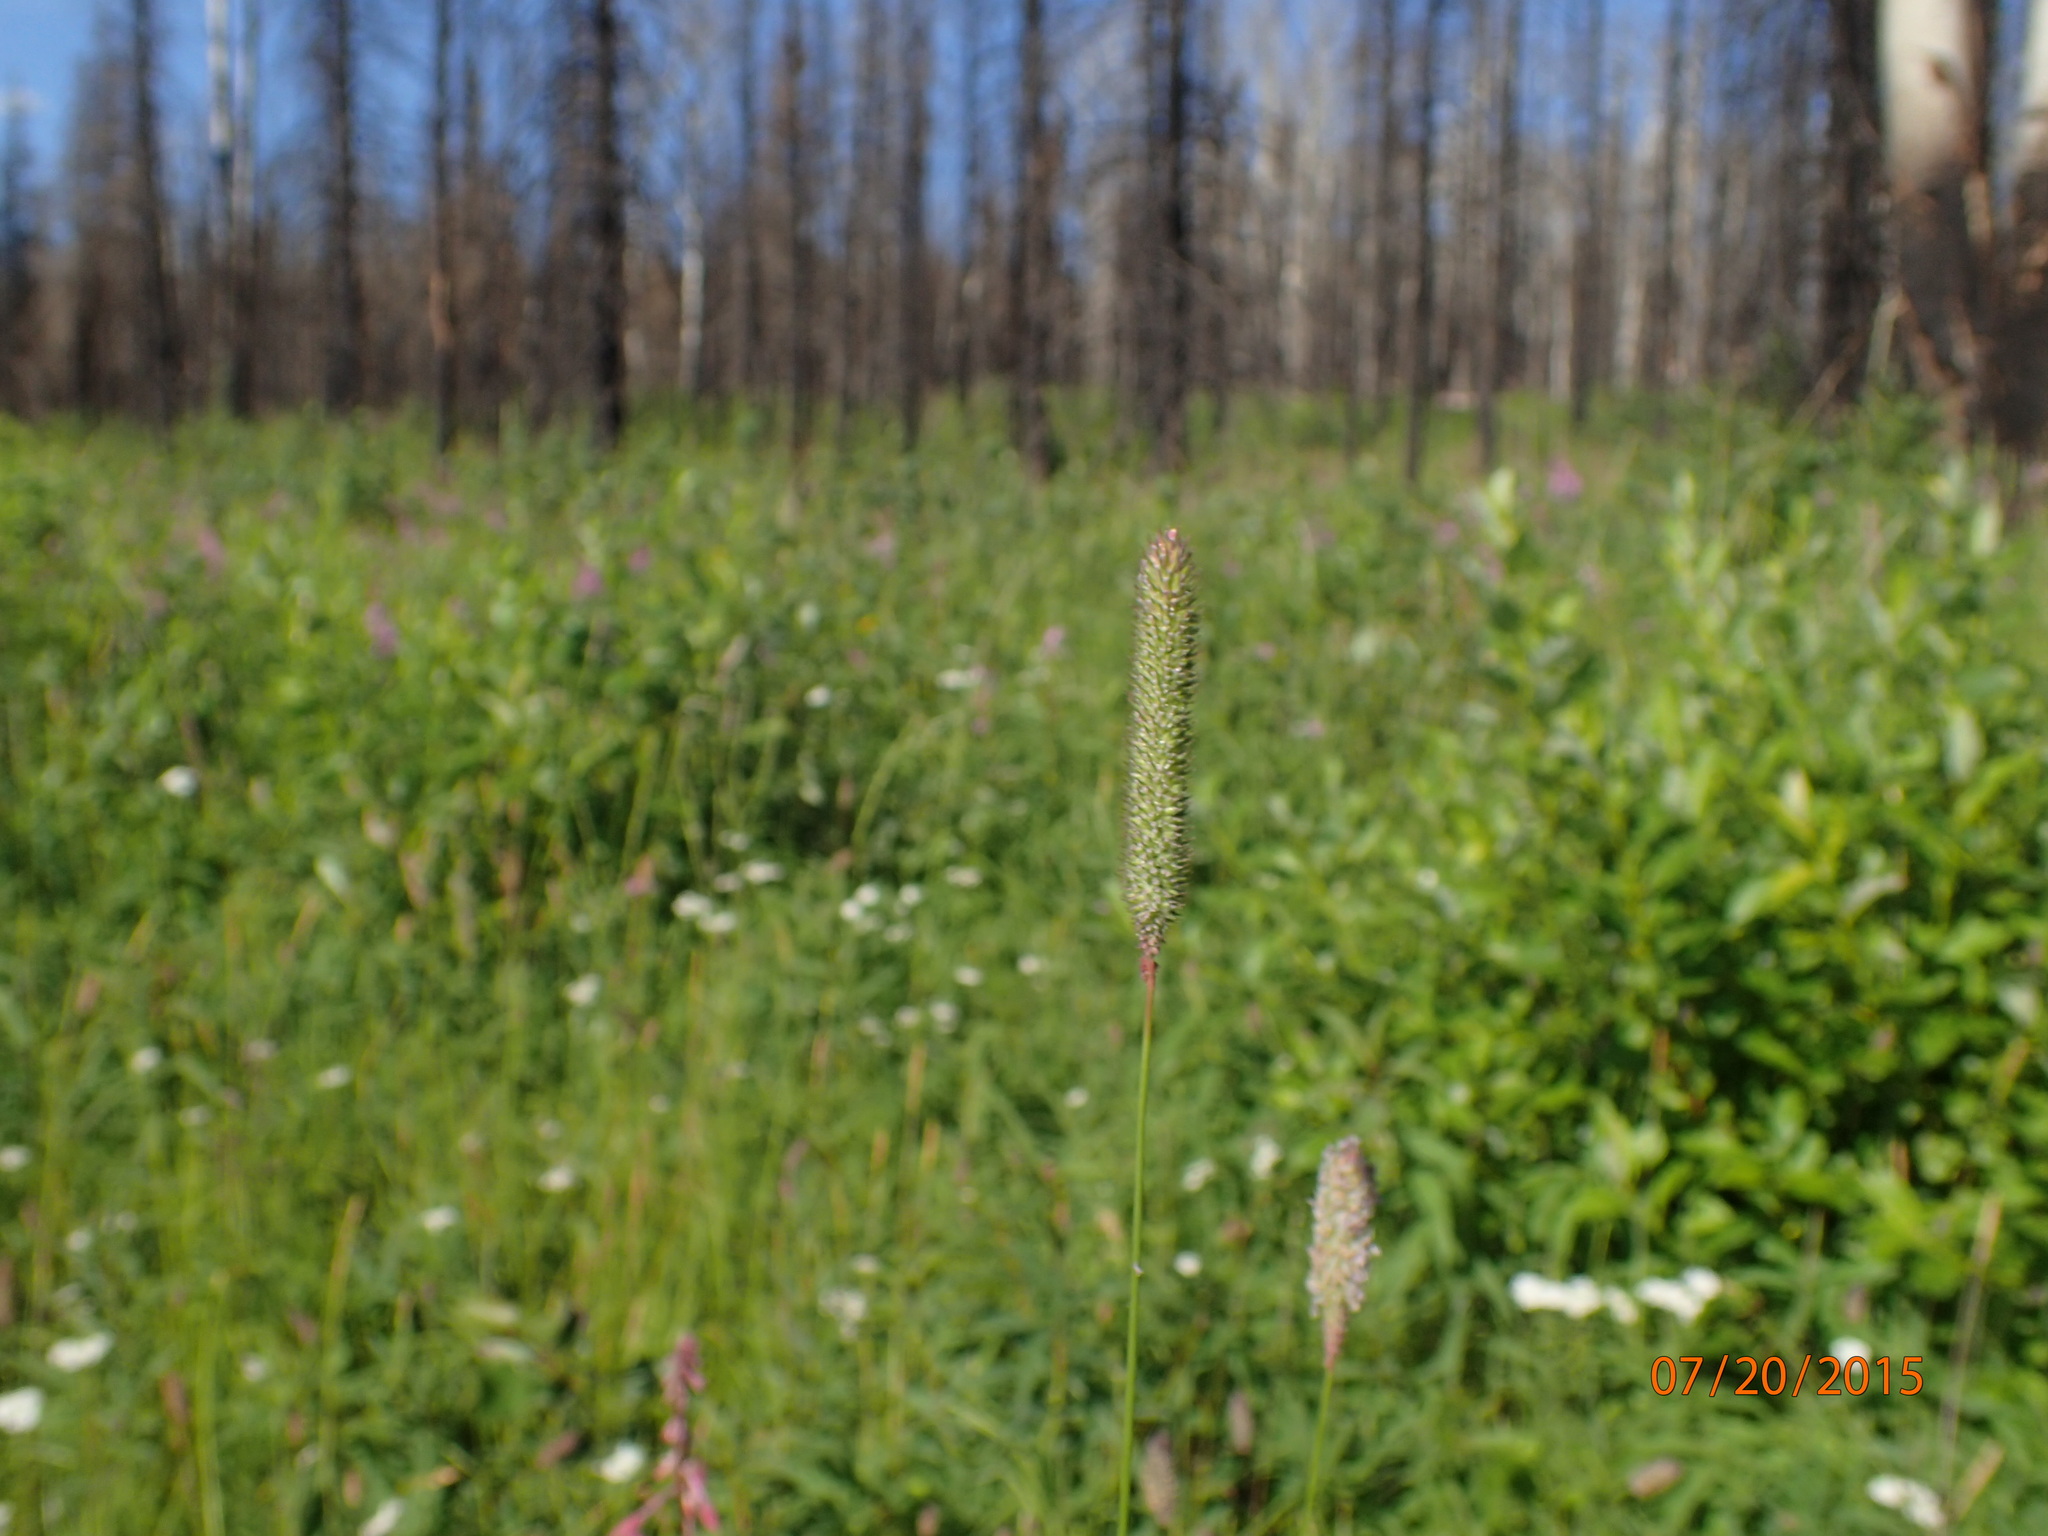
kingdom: Plantae
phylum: Tracheophyta
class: Liliopsida
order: Poales
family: Poaceae
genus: Phleum
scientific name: Phleum pratense
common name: Timothy grass
